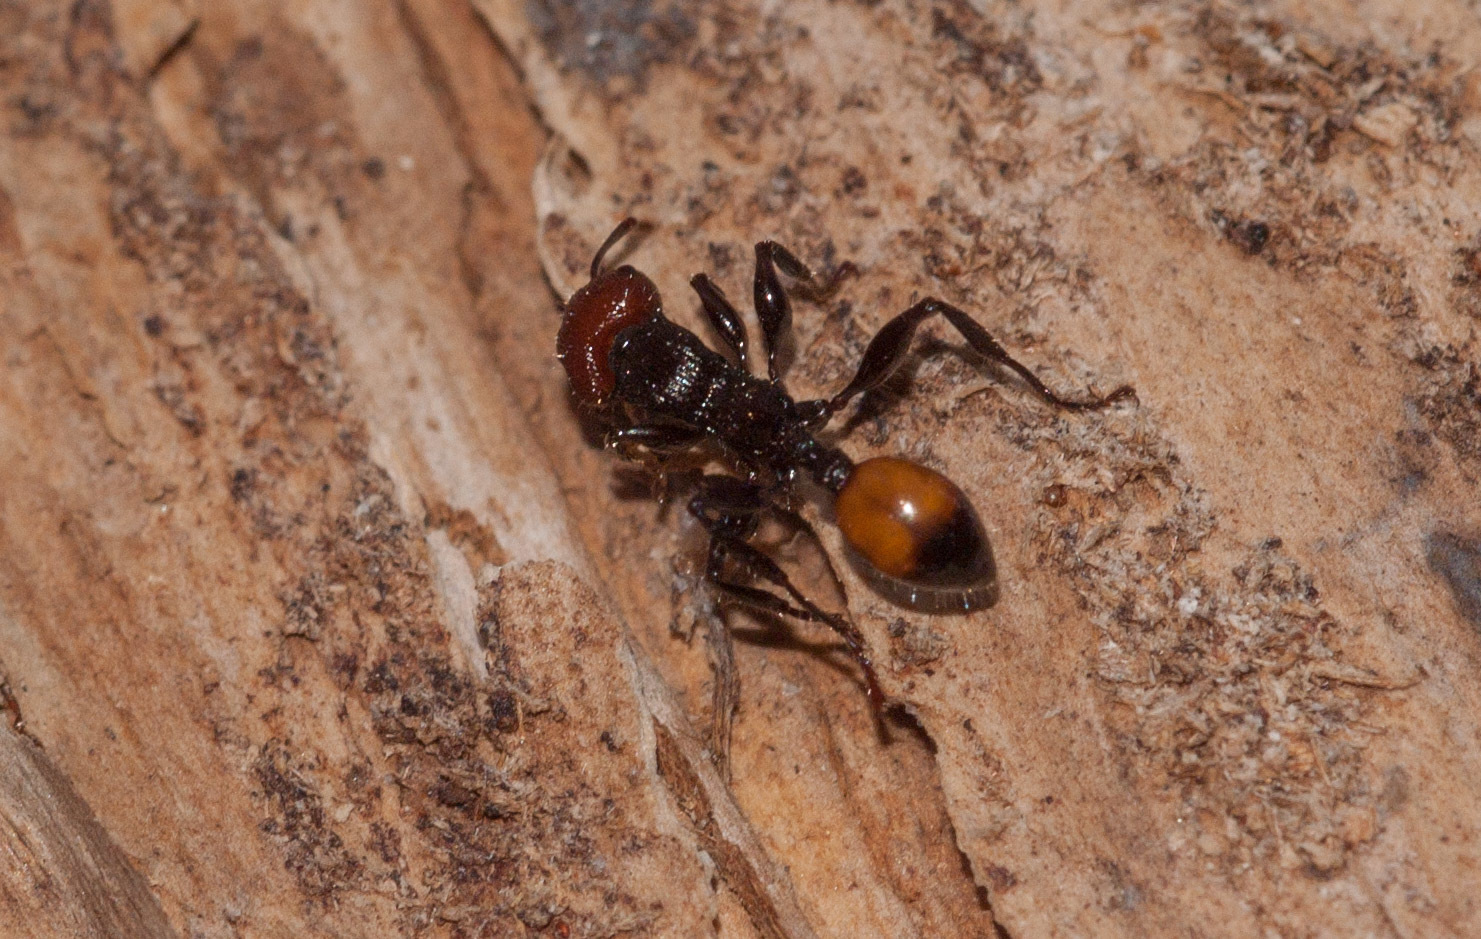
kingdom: Animalia
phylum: Arthropoda
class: Insecta
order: Hymenoptera
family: Formicidae
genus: Podomyrma
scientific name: Podomyrma
